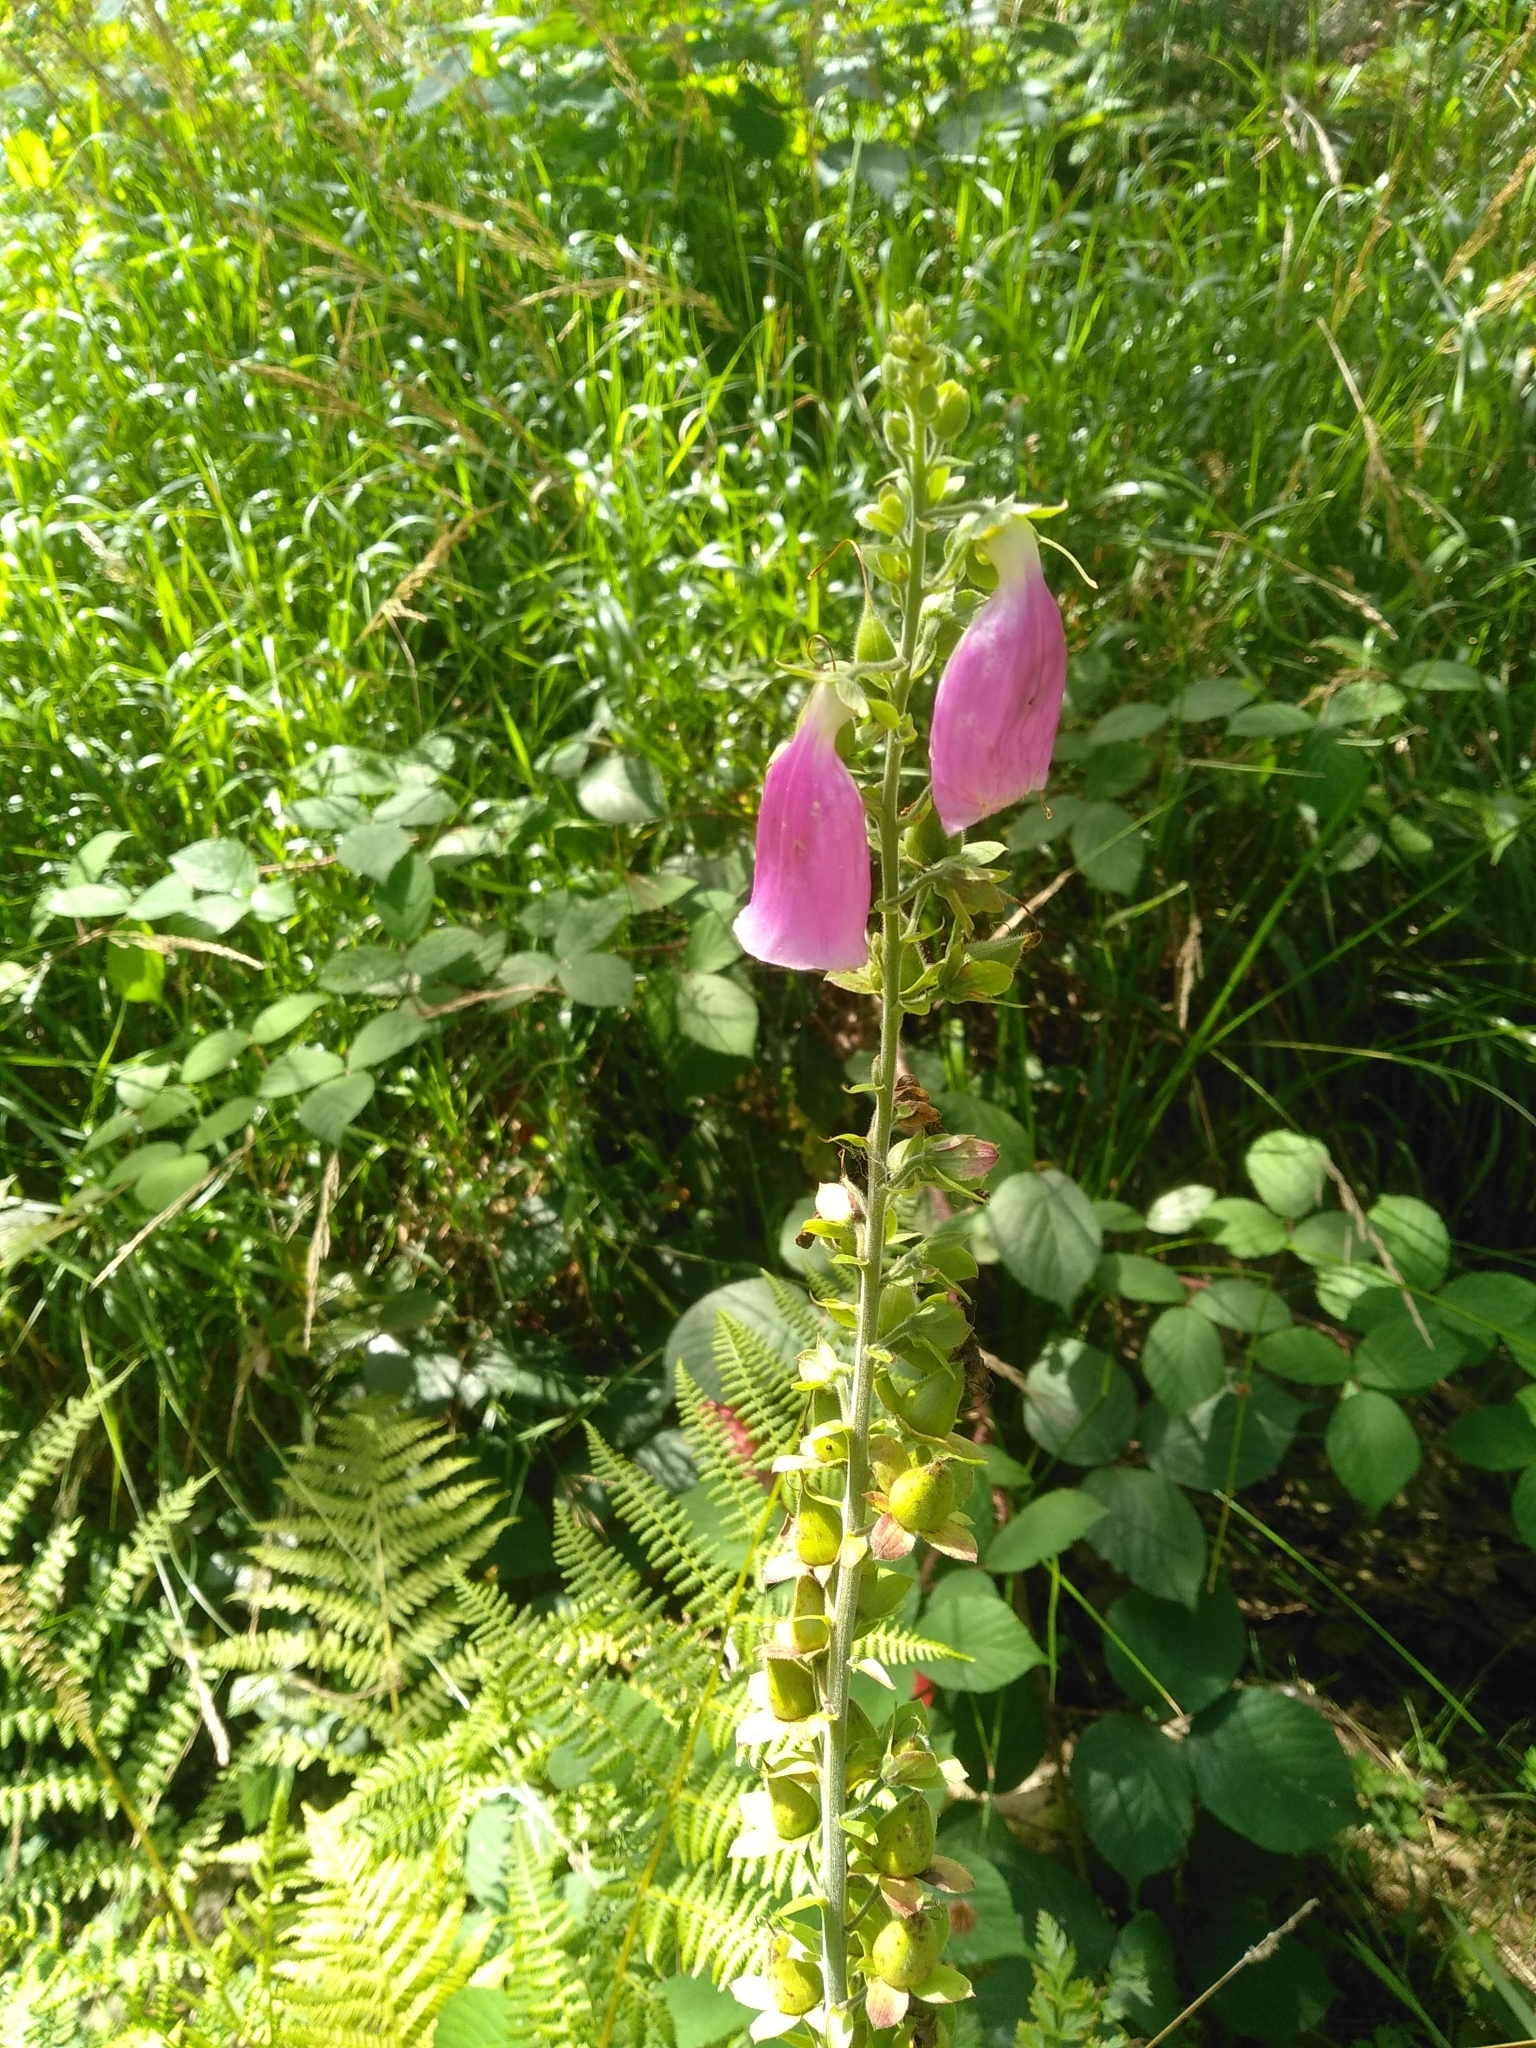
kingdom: Plantae
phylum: Tracheophyta
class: Magnoliopsida
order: Lamiales
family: Plantaginaceae
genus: Digitalis
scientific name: Digitalis purpurea
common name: Foxglove
